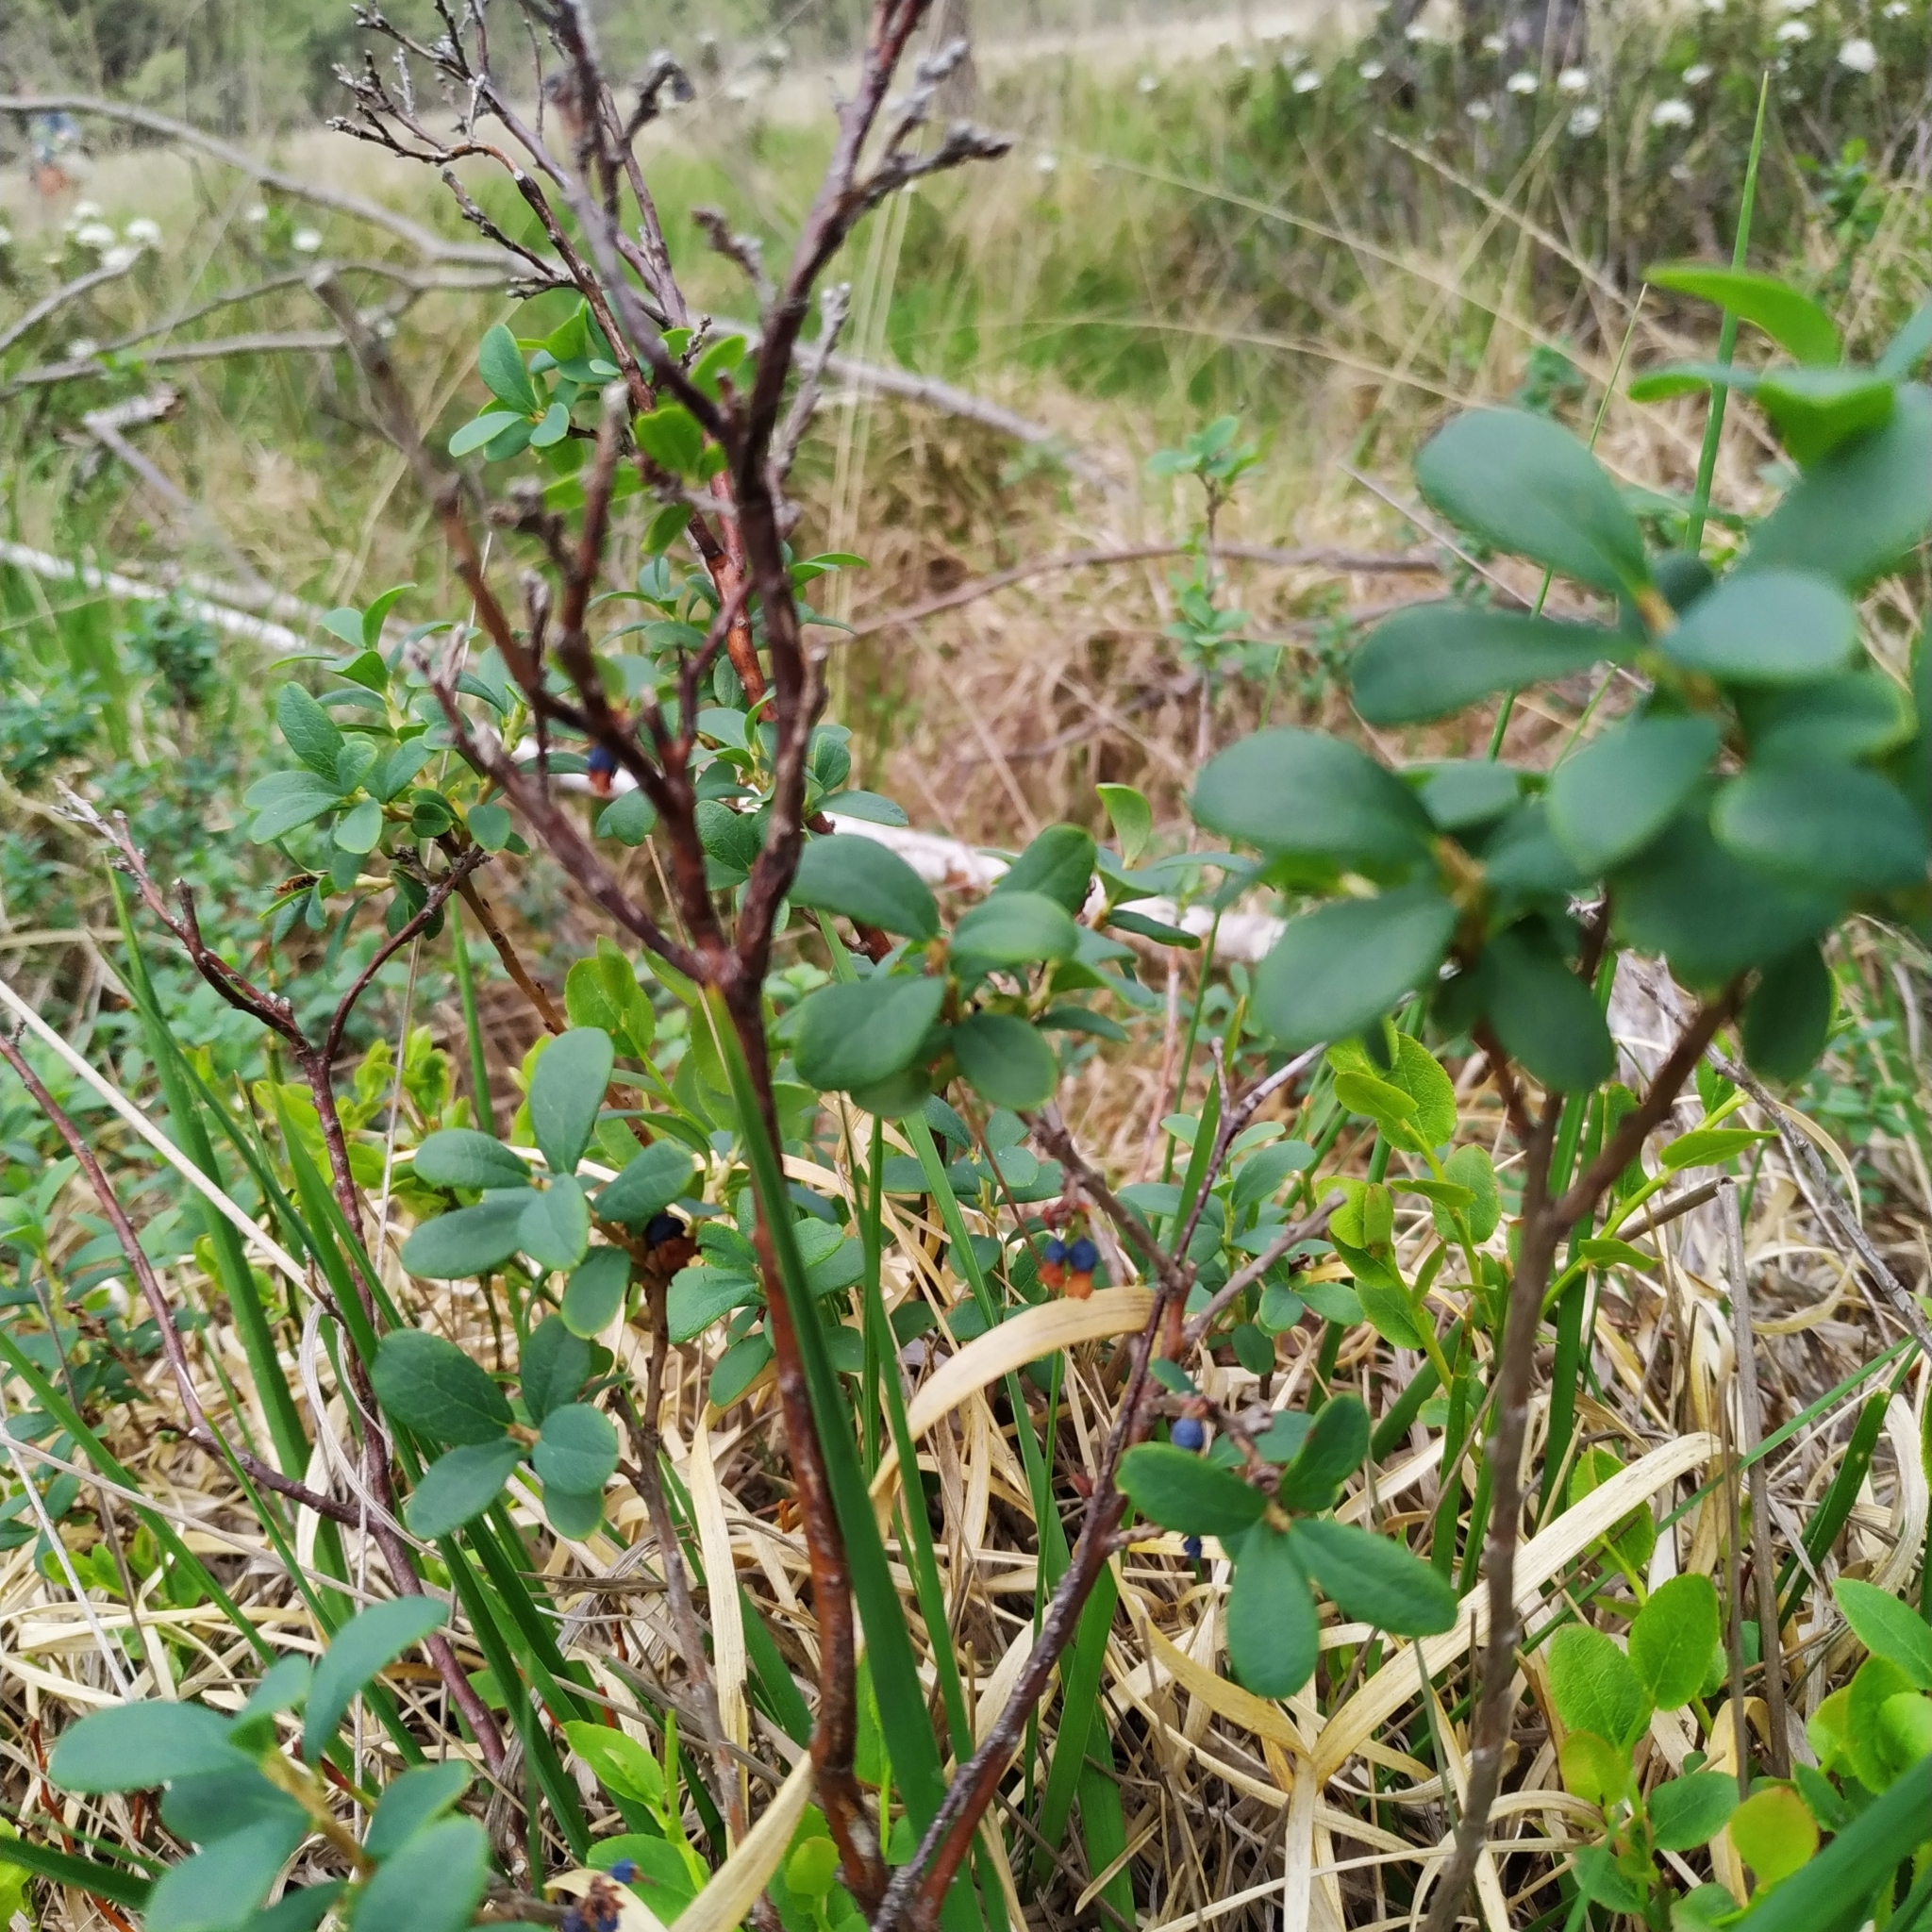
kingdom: Plantae
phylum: Tracheophyta
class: Magnoliopsida
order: Ericales
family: Ericaceae
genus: Vaccinium
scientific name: Vaccinium uliginosum
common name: Bog bilberry
